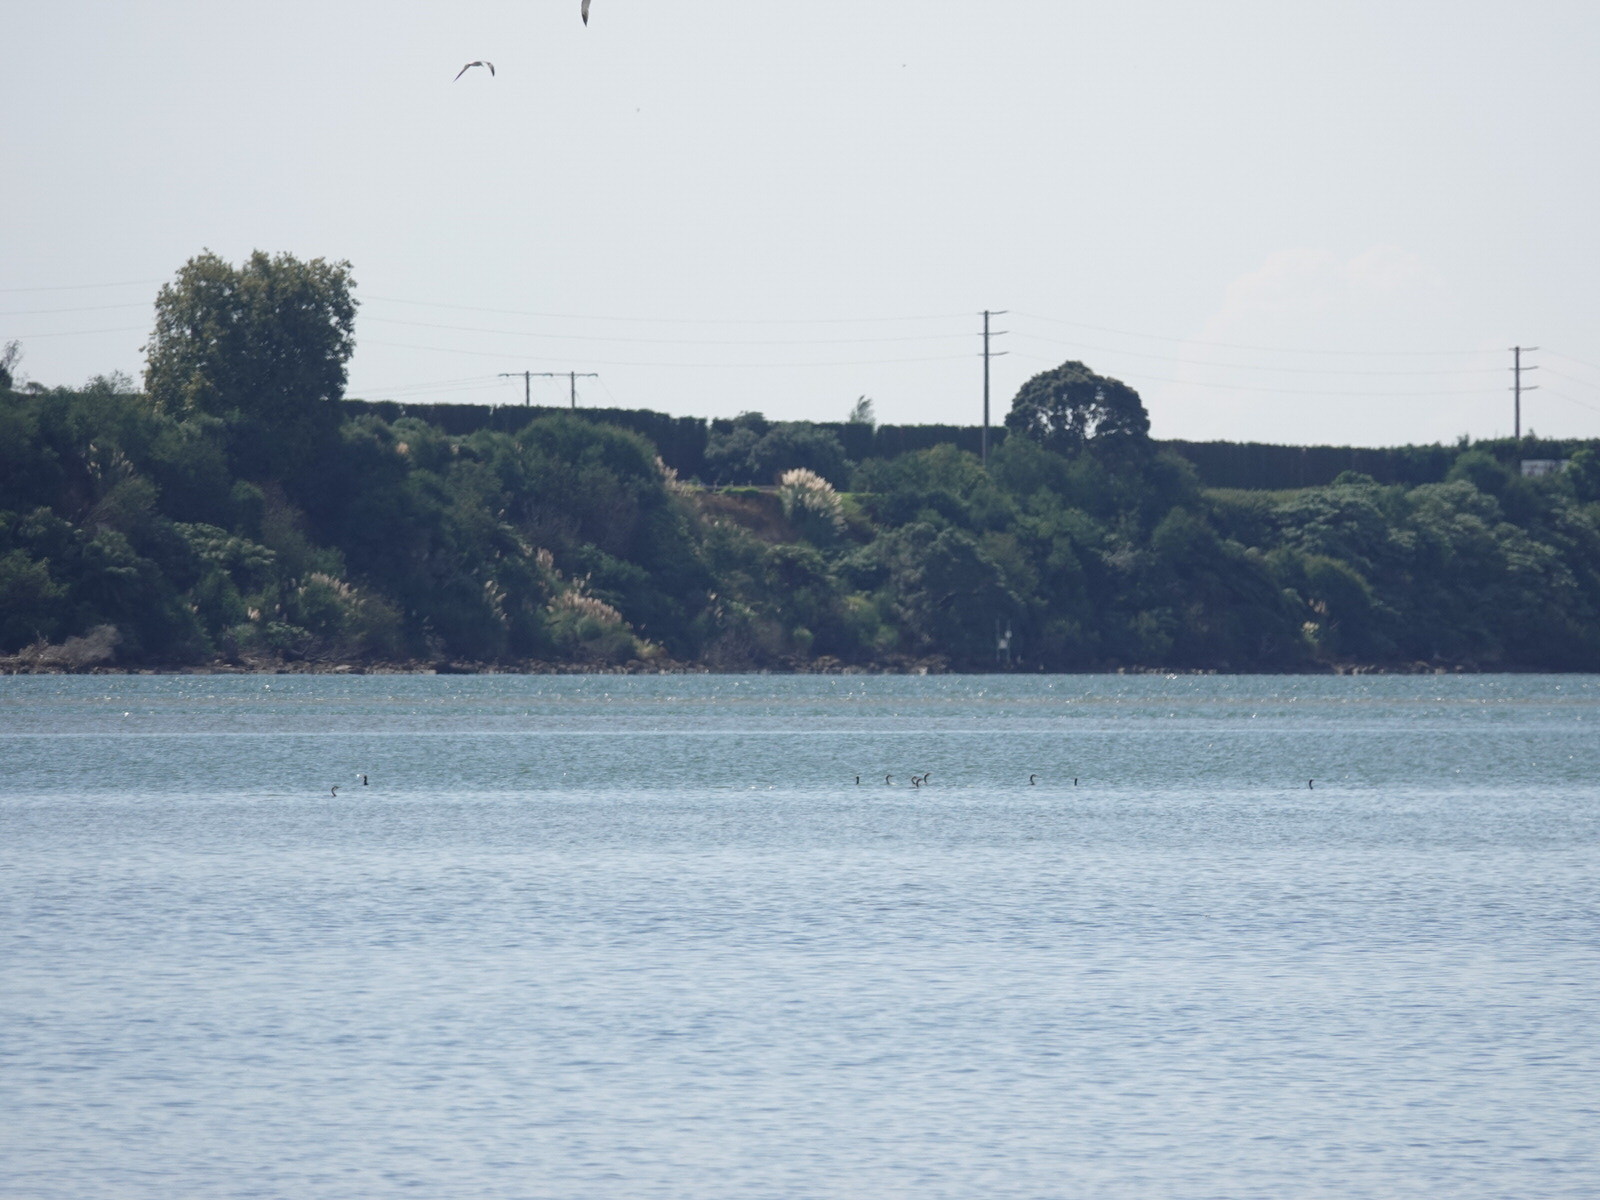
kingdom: Animalia
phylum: Chordata
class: Aves
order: Suliformes
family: Phalacrocoracidae
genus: Phalacrocorax
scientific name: Phalacrocorax varius
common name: Pied cormorant
